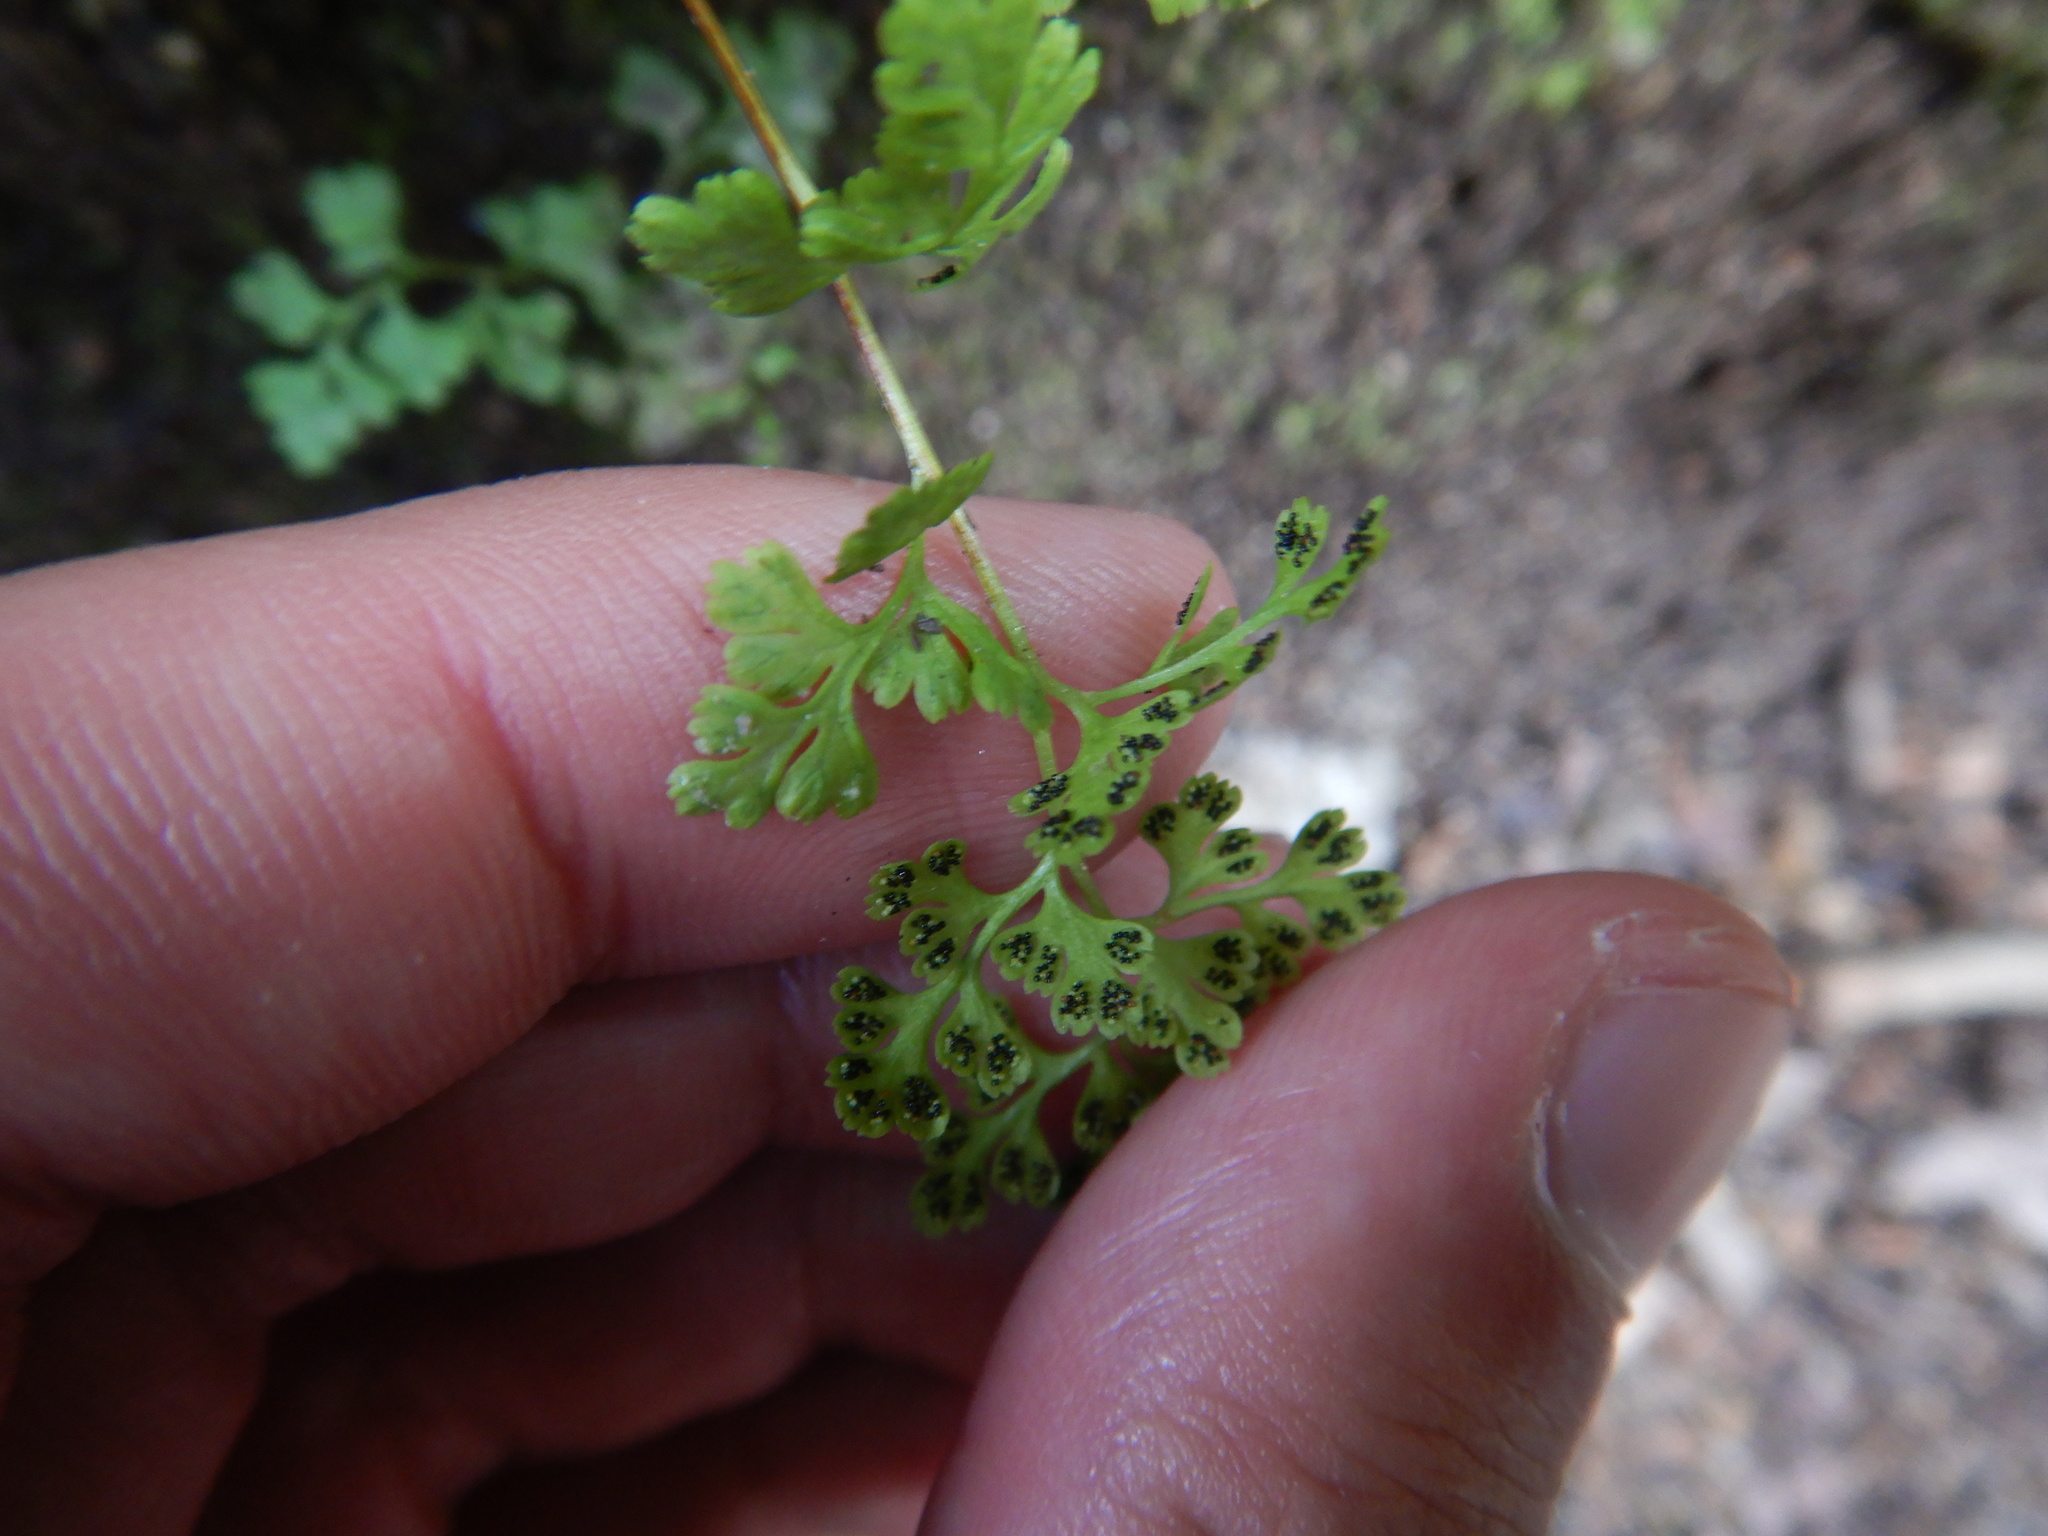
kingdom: Plantae
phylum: Tracheophyta
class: Polypodiopsida
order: Polypodiales
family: Pteridaceae
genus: Anogramma
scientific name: Anogramma leptophylla
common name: Jersey fern
